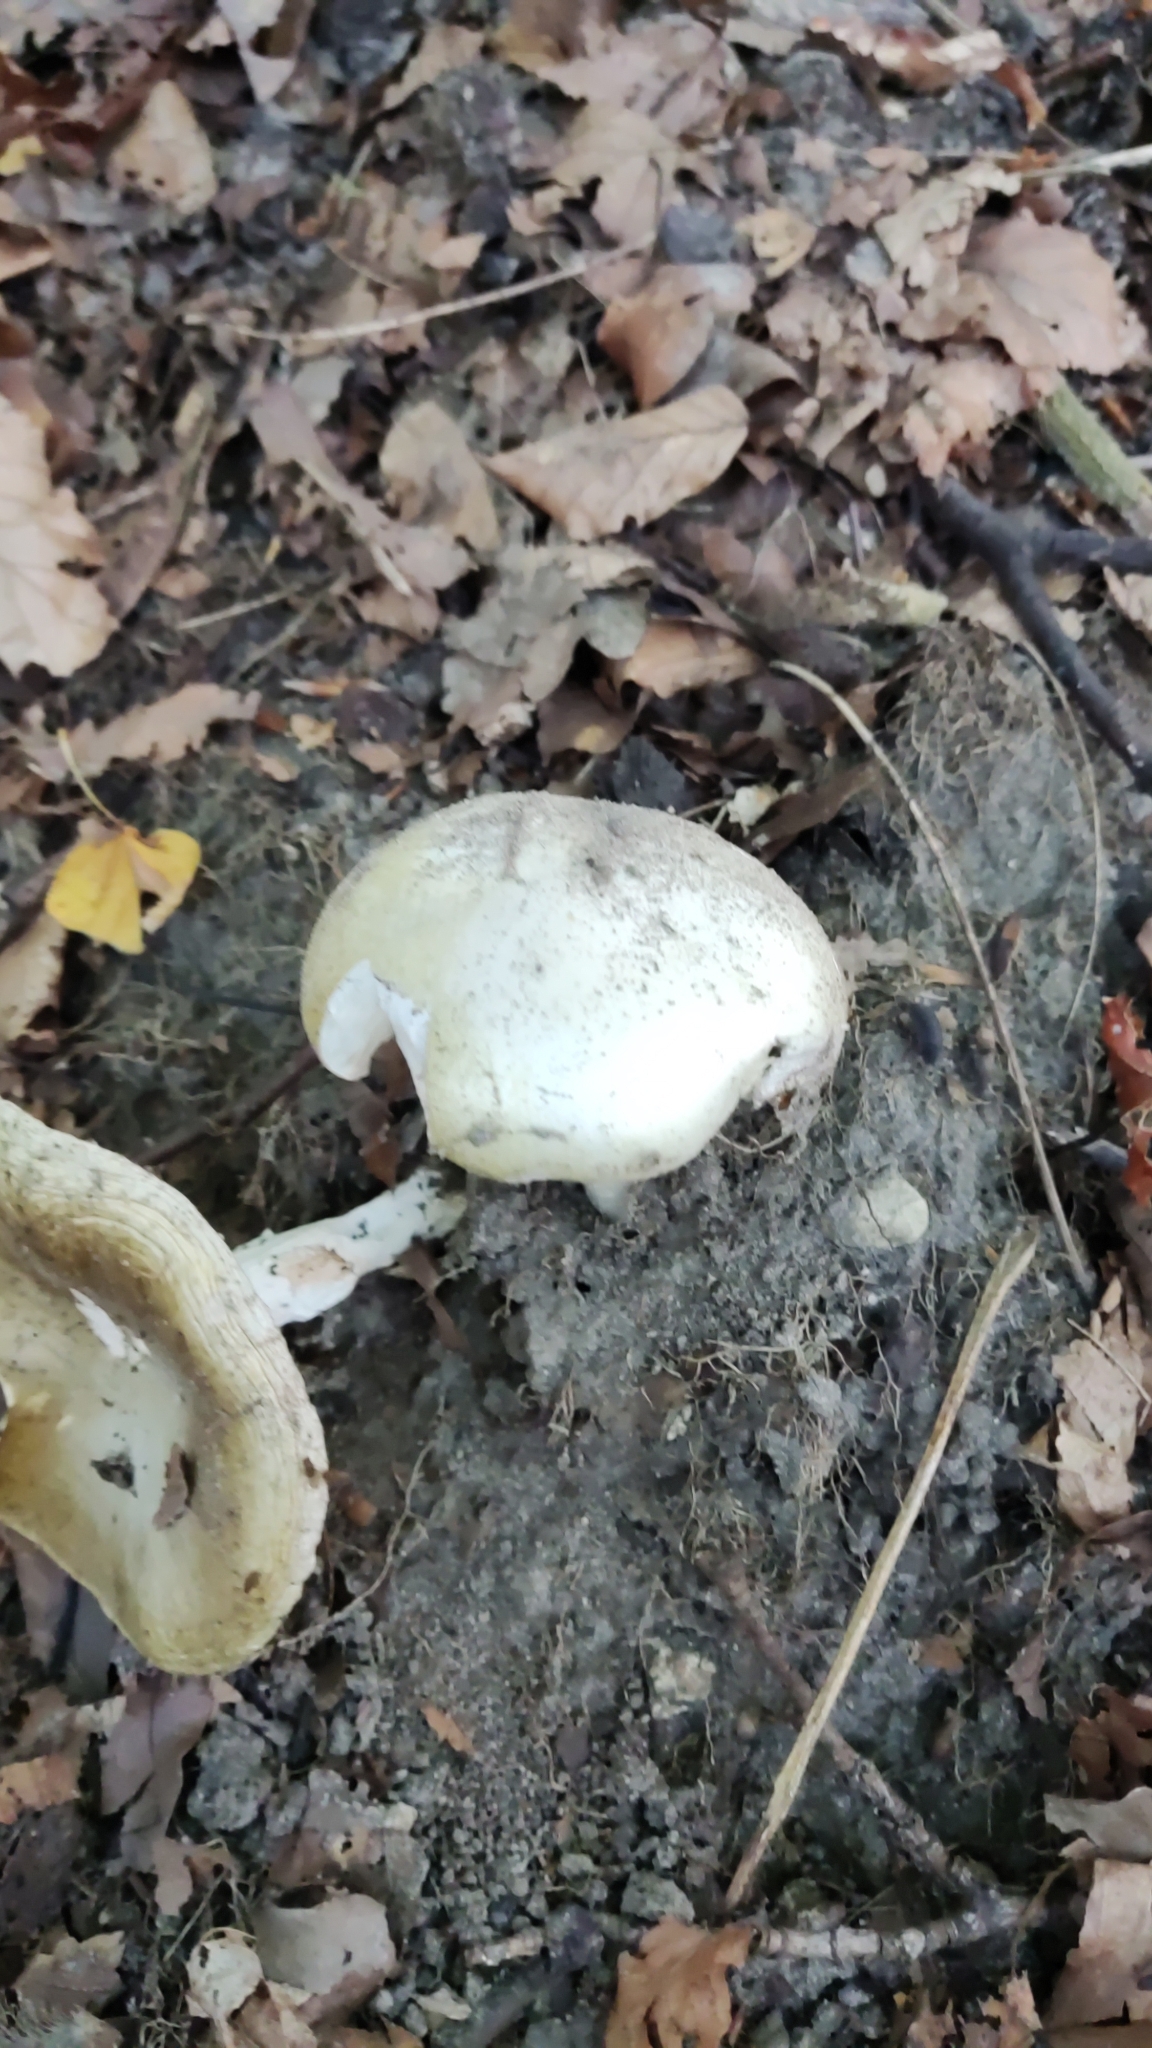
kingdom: Fungi
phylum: Basidiomycota
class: Agaricomycetes
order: Agaricales
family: Amanitaceae
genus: Amanita
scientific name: Amanita phalloides
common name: Death cap
